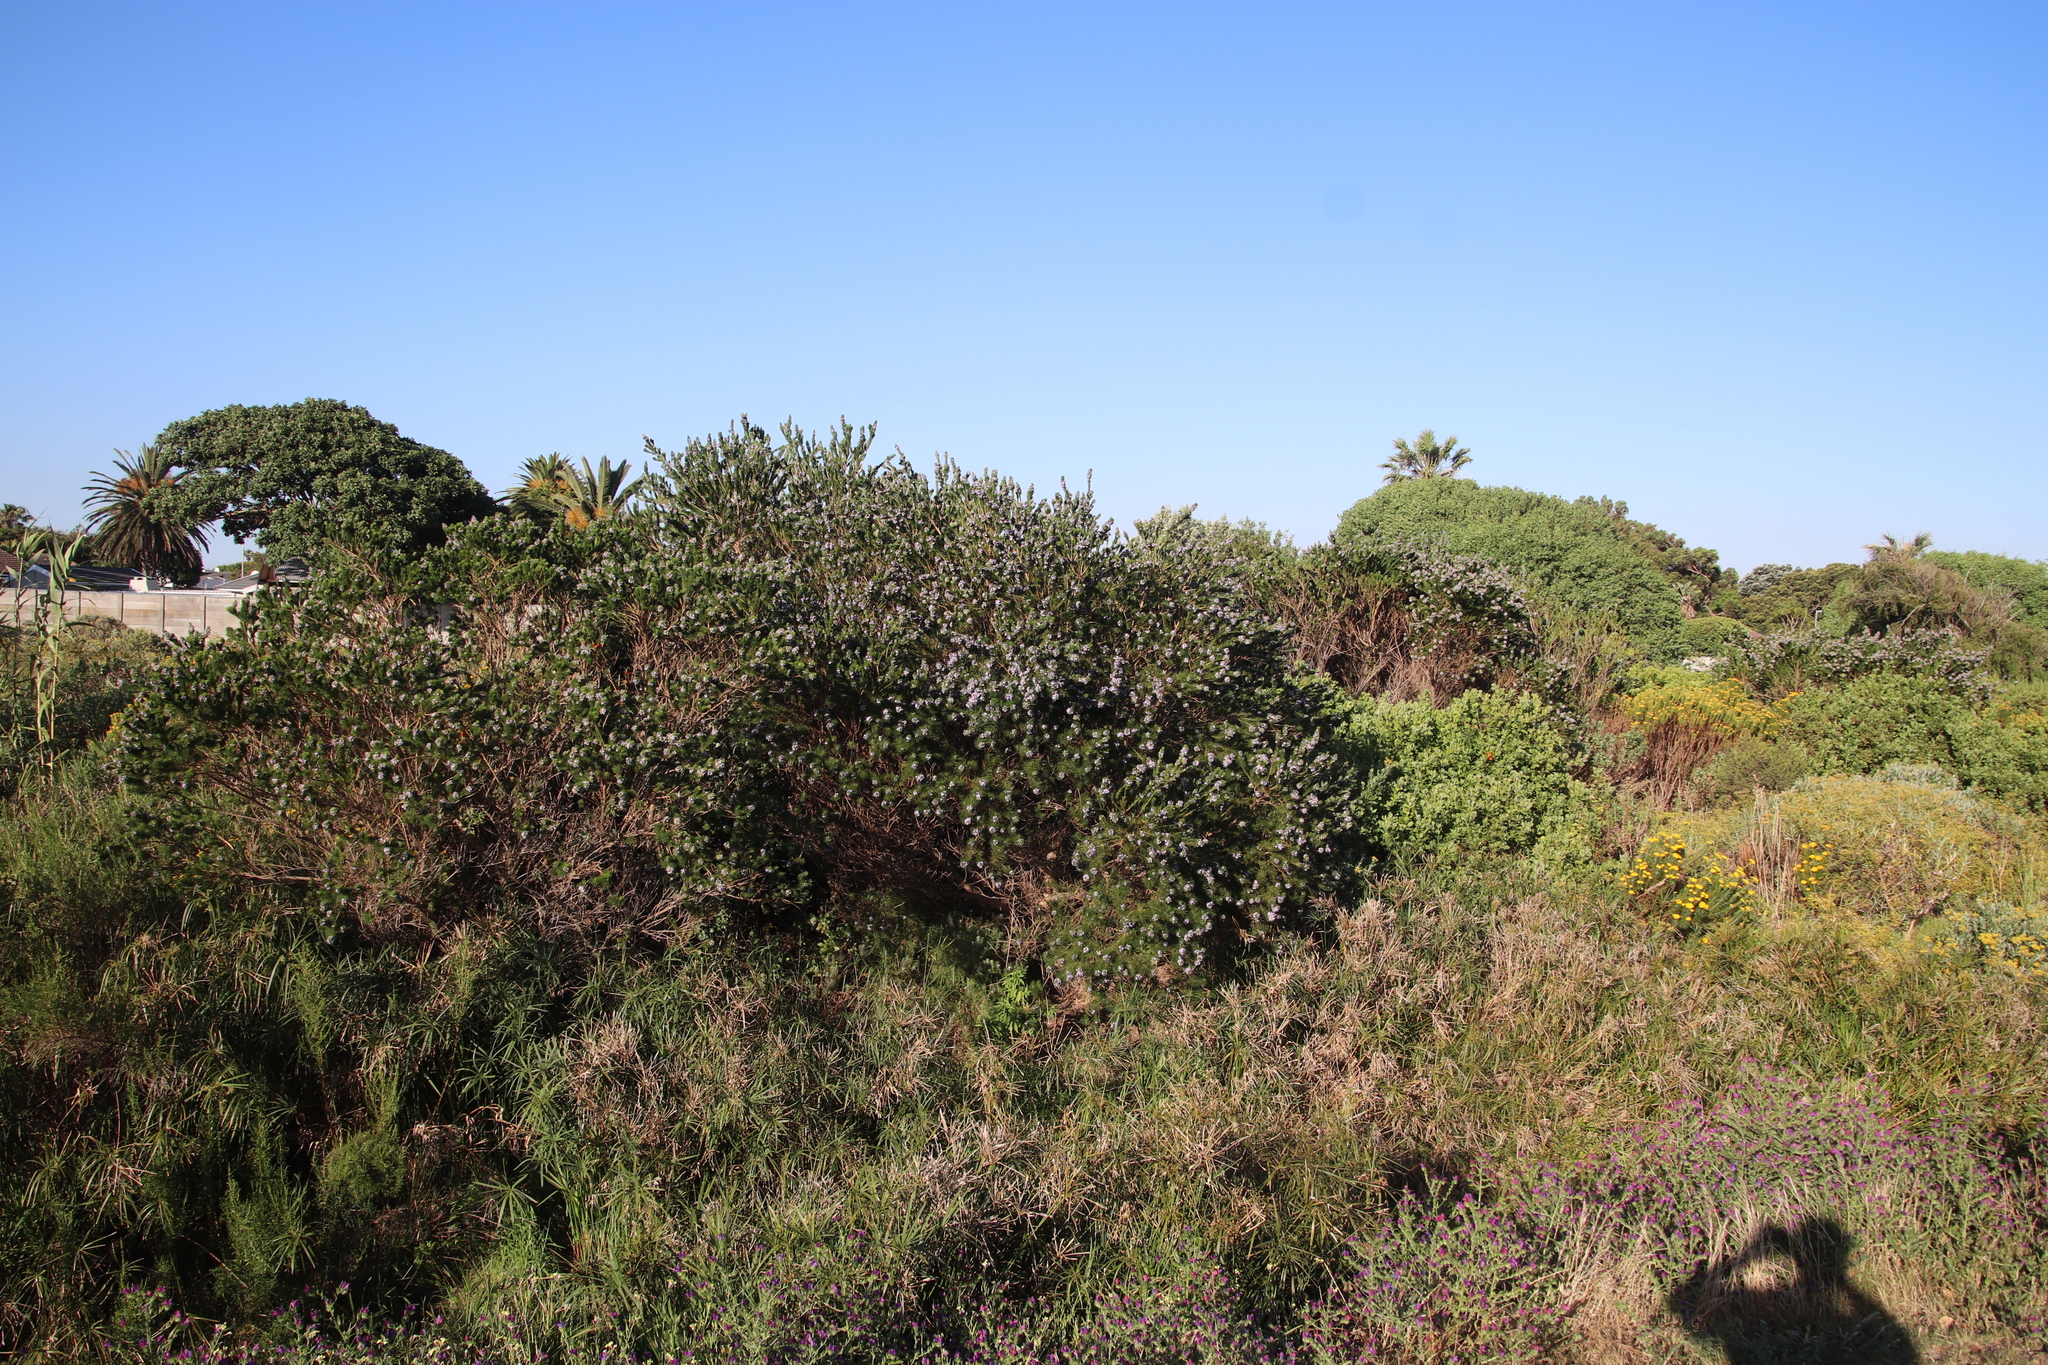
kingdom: Plantae
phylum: Tracheophyta
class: Magnoliopsida
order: Fabales
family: Fabaceae
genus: Psoralea
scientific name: Psoralea pinnata
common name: African scurfpea
